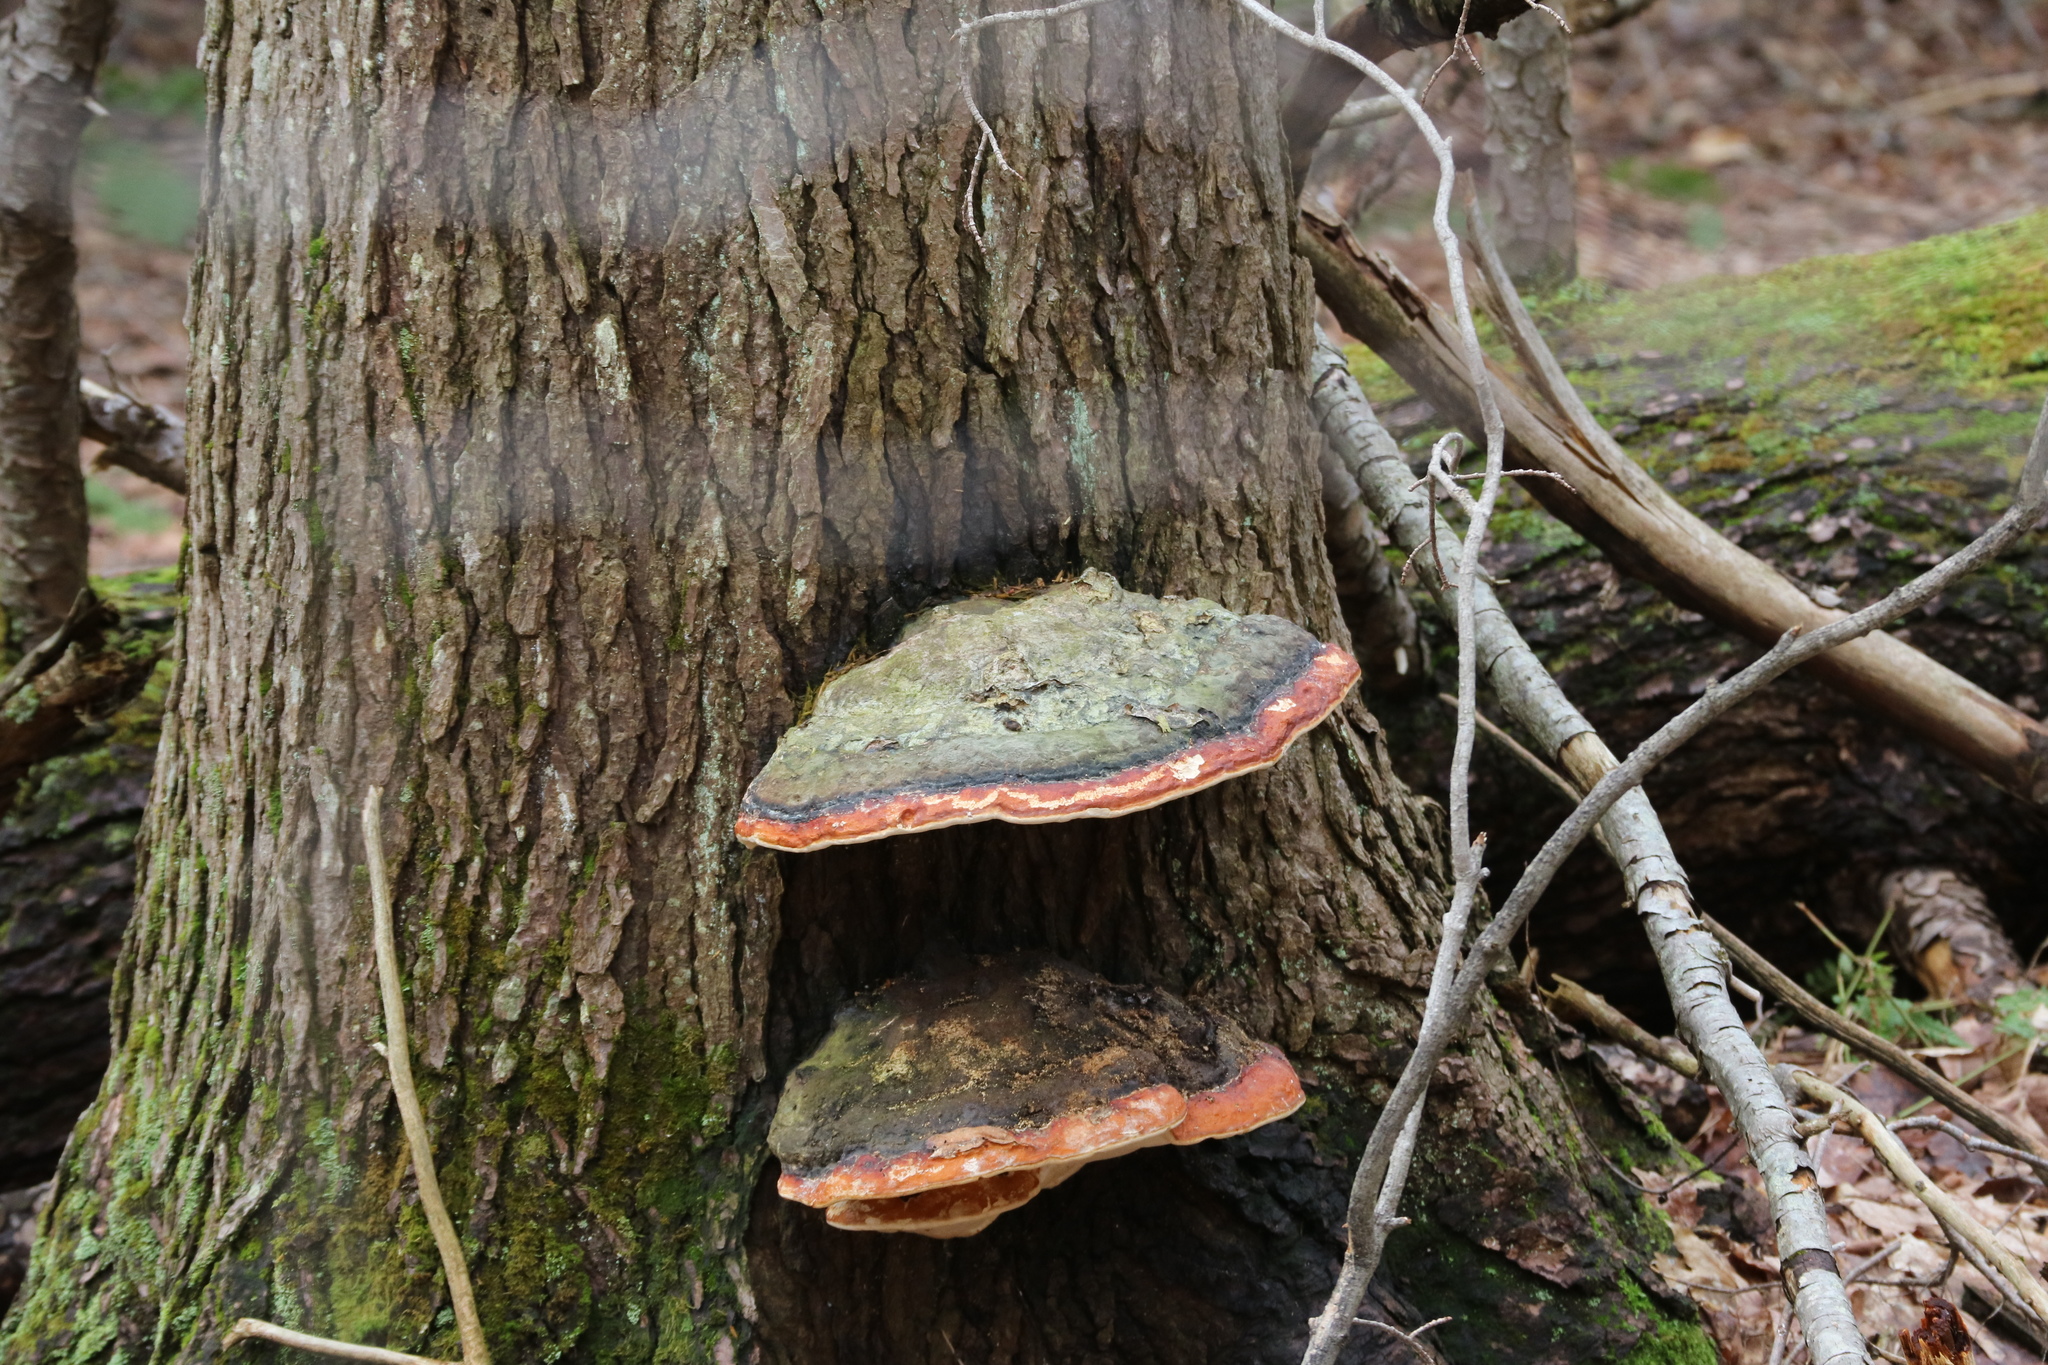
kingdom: Fungi
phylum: Basidiomycota
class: Agaricomycetes
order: Polyporales
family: Fomitopsidaceae
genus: Fomitopsis
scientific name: Fomitopsis mounceae
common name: Northern red belt
